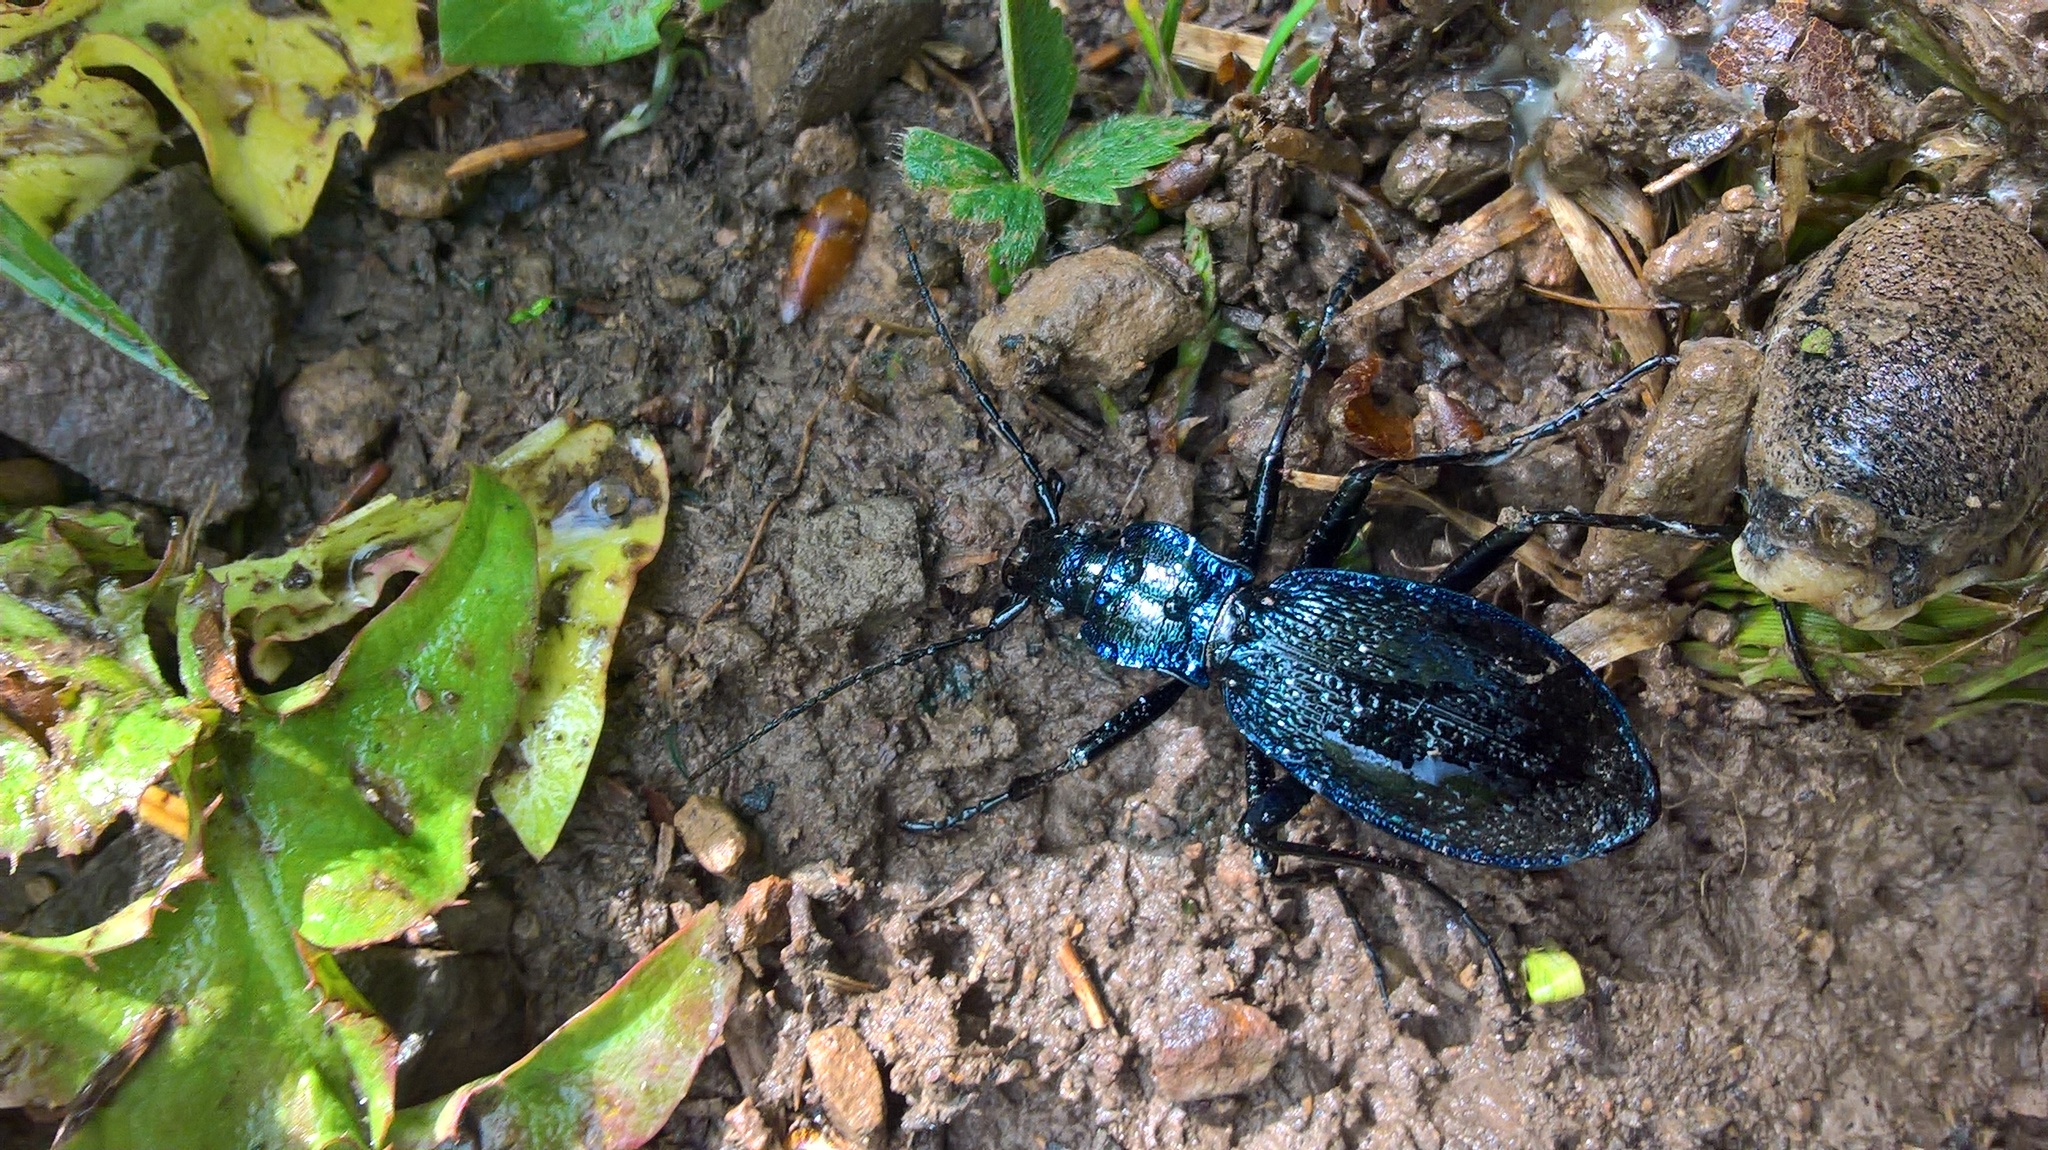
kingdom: Animalia
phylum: Arthropoda
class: Insecta
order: Coleoptera
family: Carabidae
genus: Carabus
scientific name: Carabus intricatus
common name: Blue ground beetle
